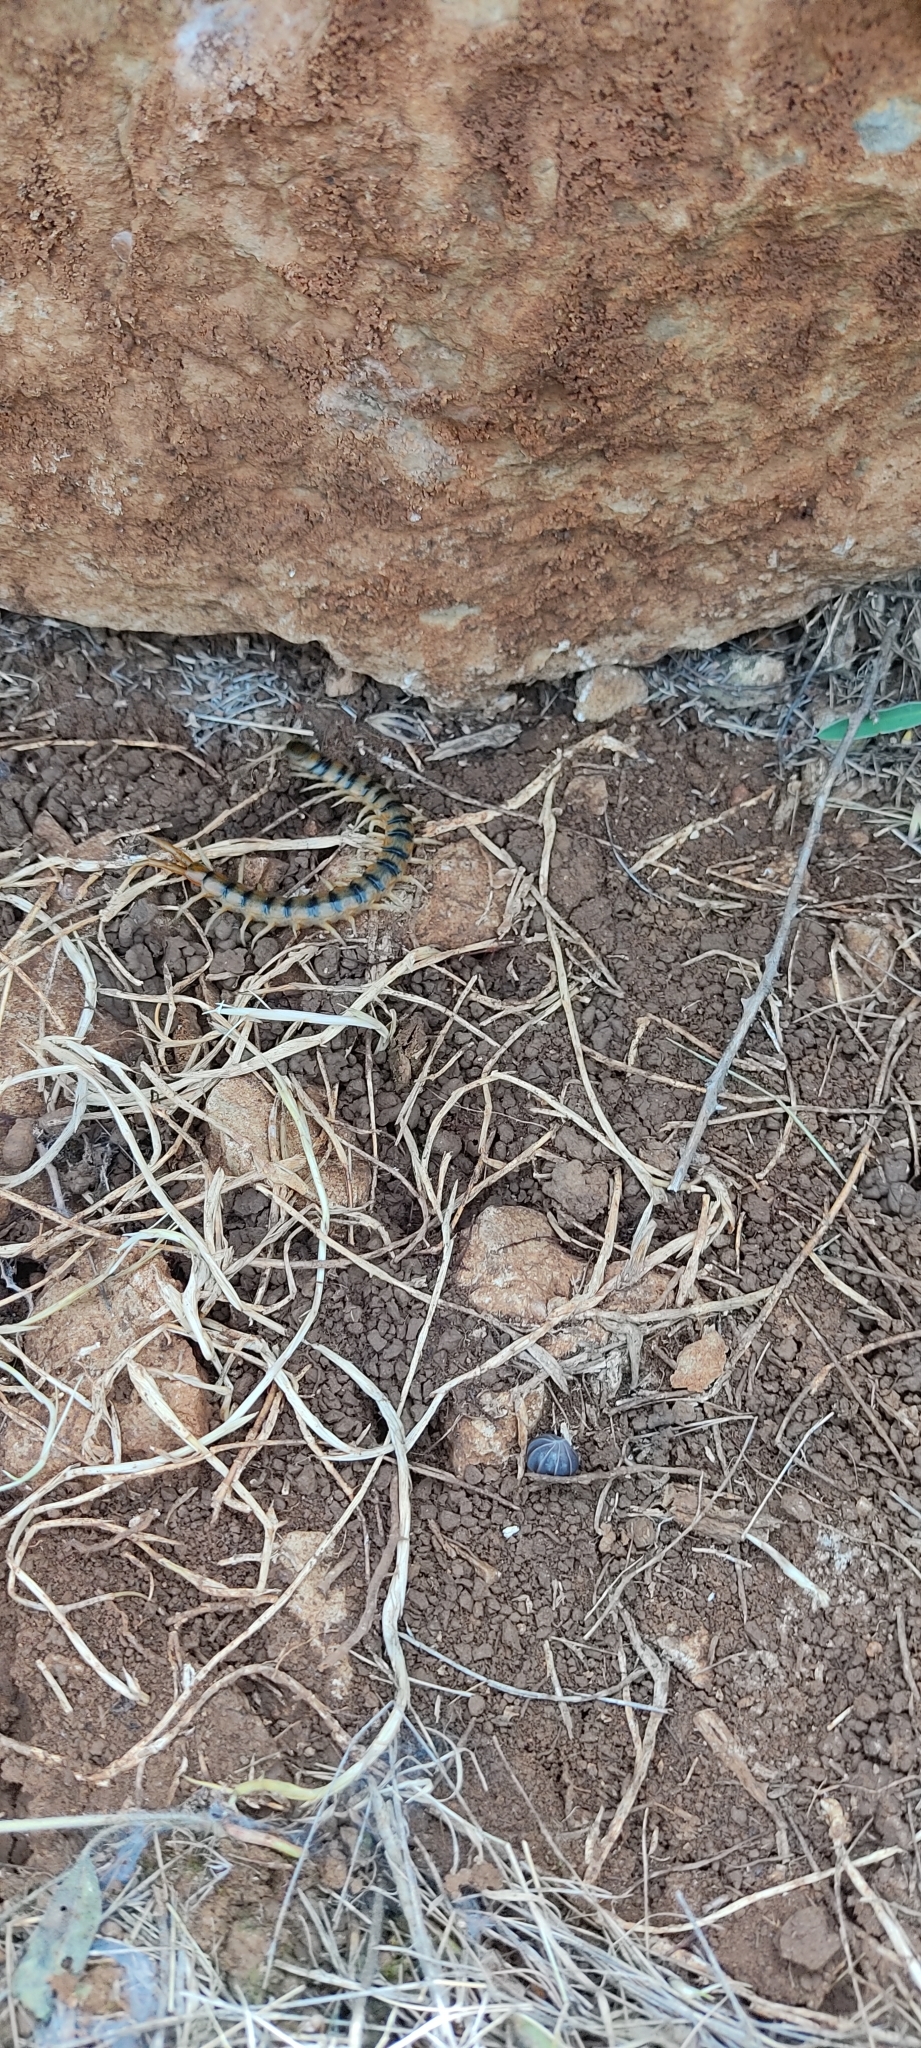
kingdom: Animalia
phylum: Arthropoda
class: Chilopoda
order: Scolopendromorpha
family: Scolopendridae
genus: Scolopendra
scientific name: Scolopendra cingulata
